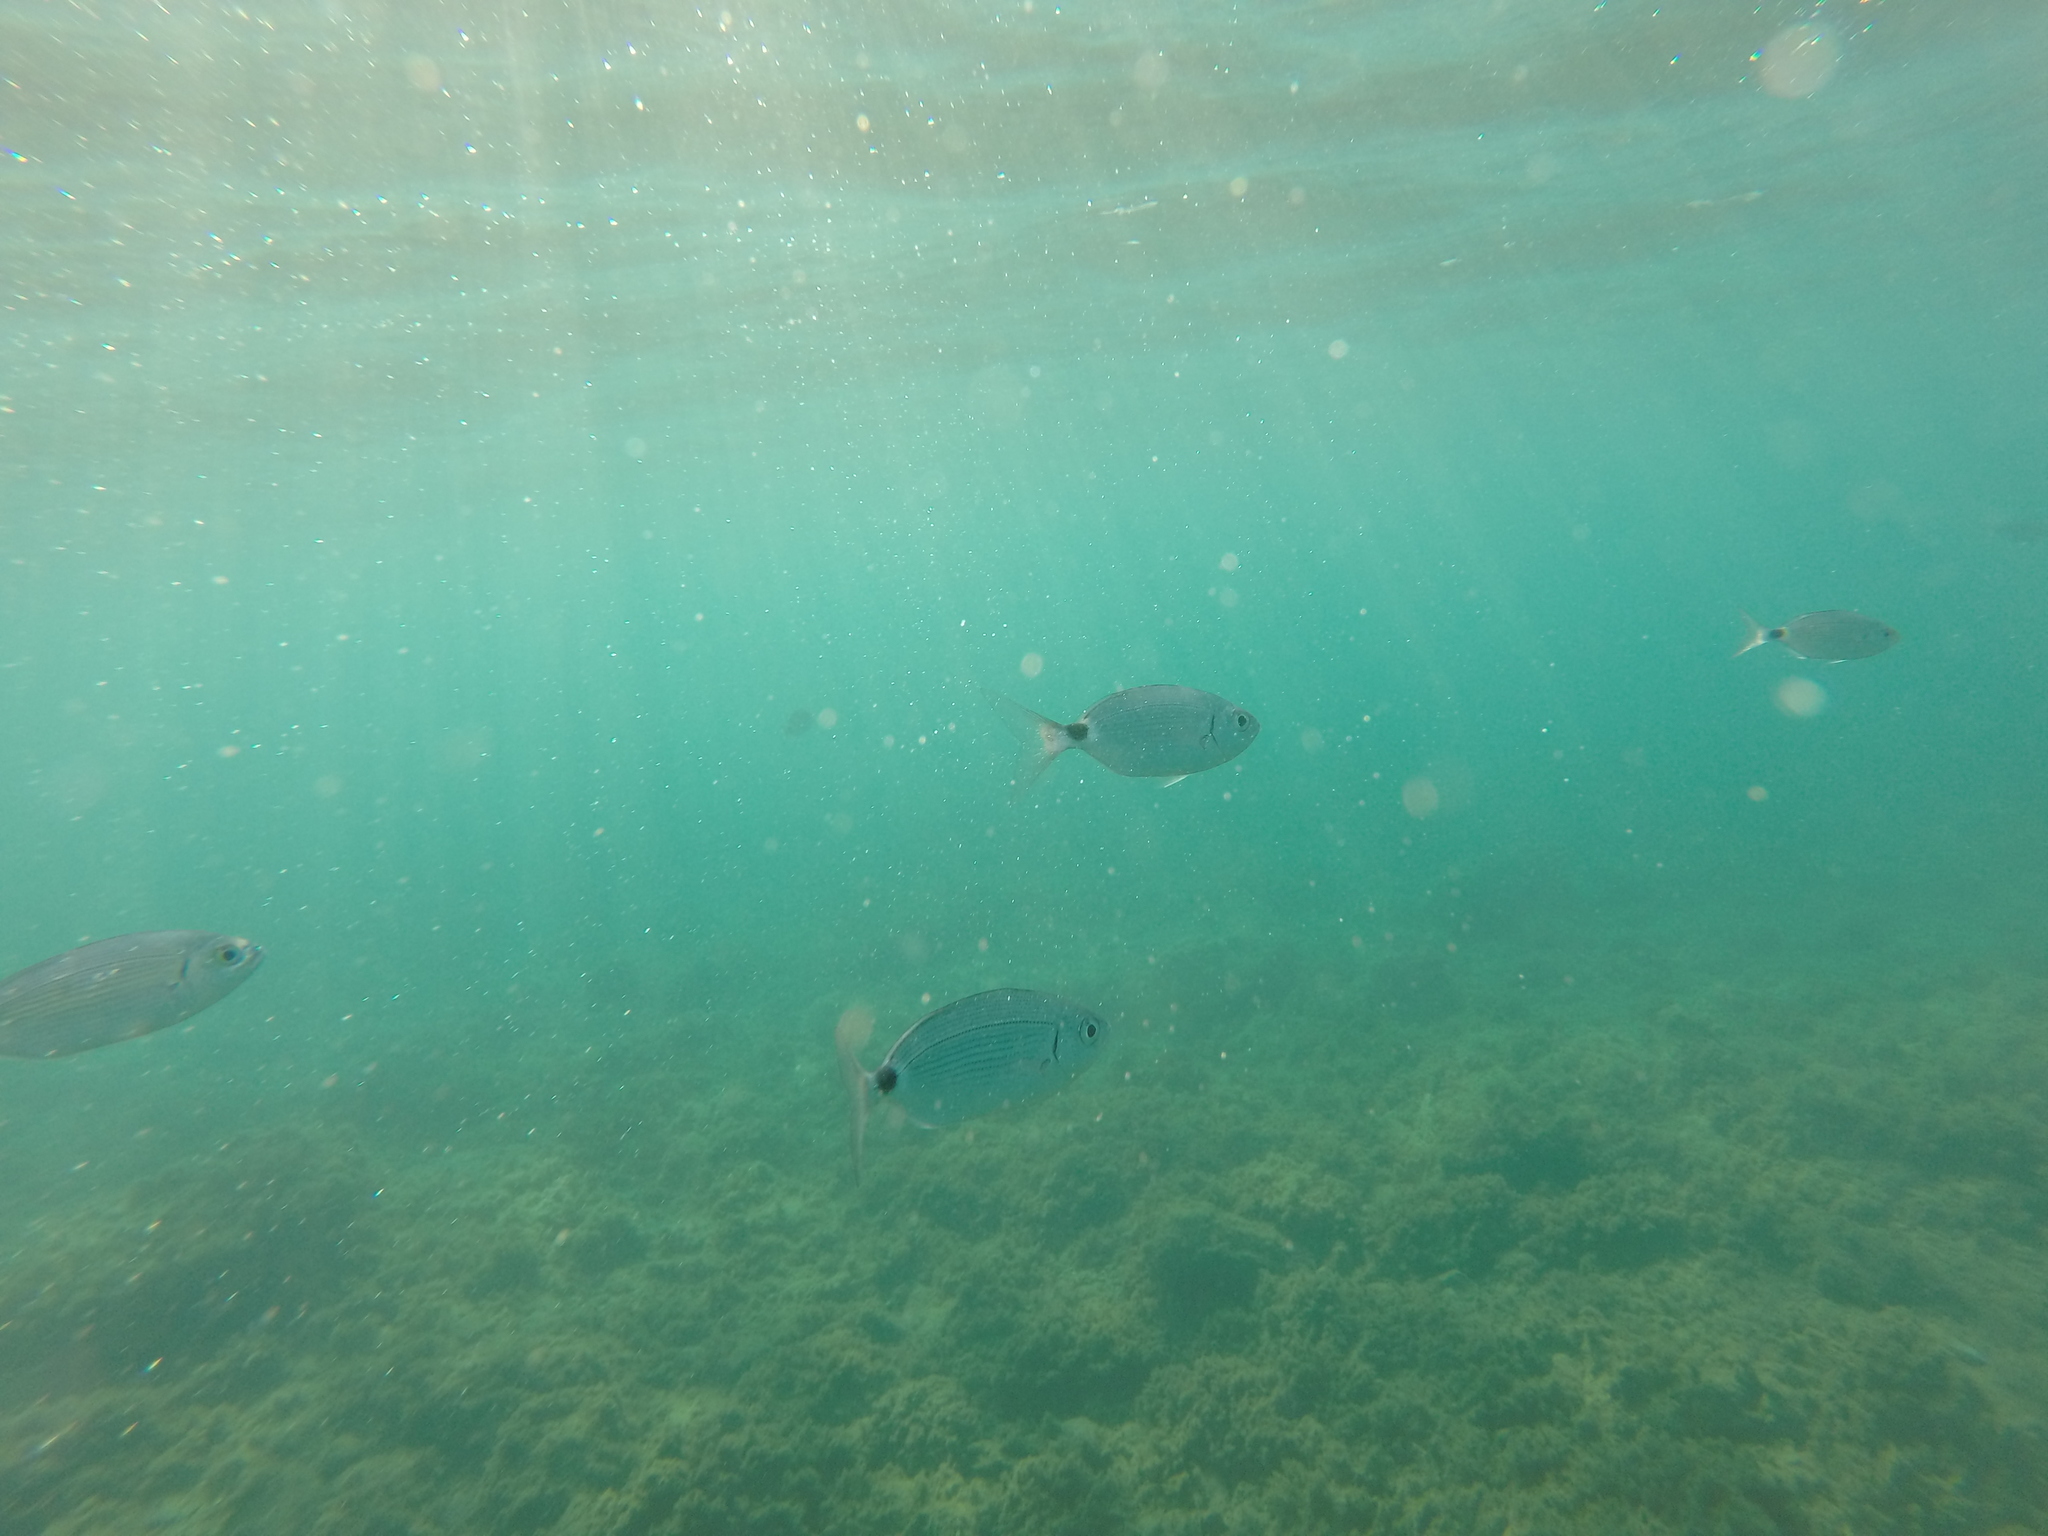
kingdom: Animalia
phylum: Chordata
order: Perciformes
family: Sparidae
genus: Oblada
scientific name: Oblada melanura
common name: Saddled seabream
